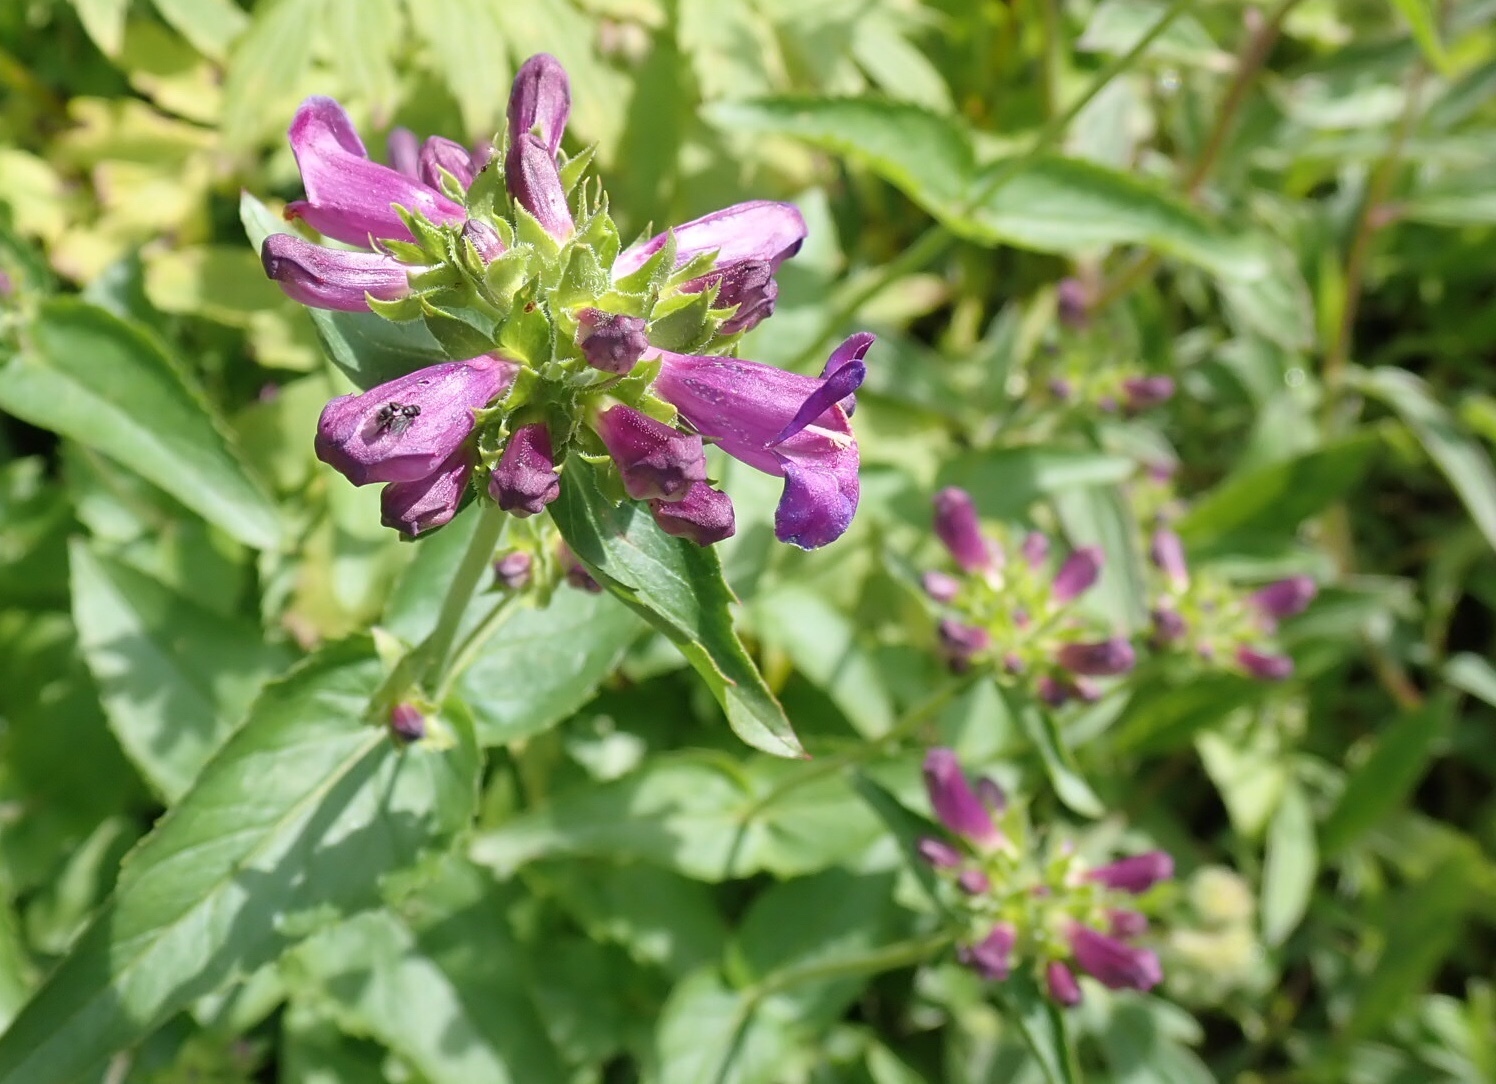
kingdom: Plantae
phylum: Tracheophyta
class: Magnoliopsida
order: Lamiales
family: Plantaginaceae
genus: Penstemon
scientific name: Penstemon serrulatus
